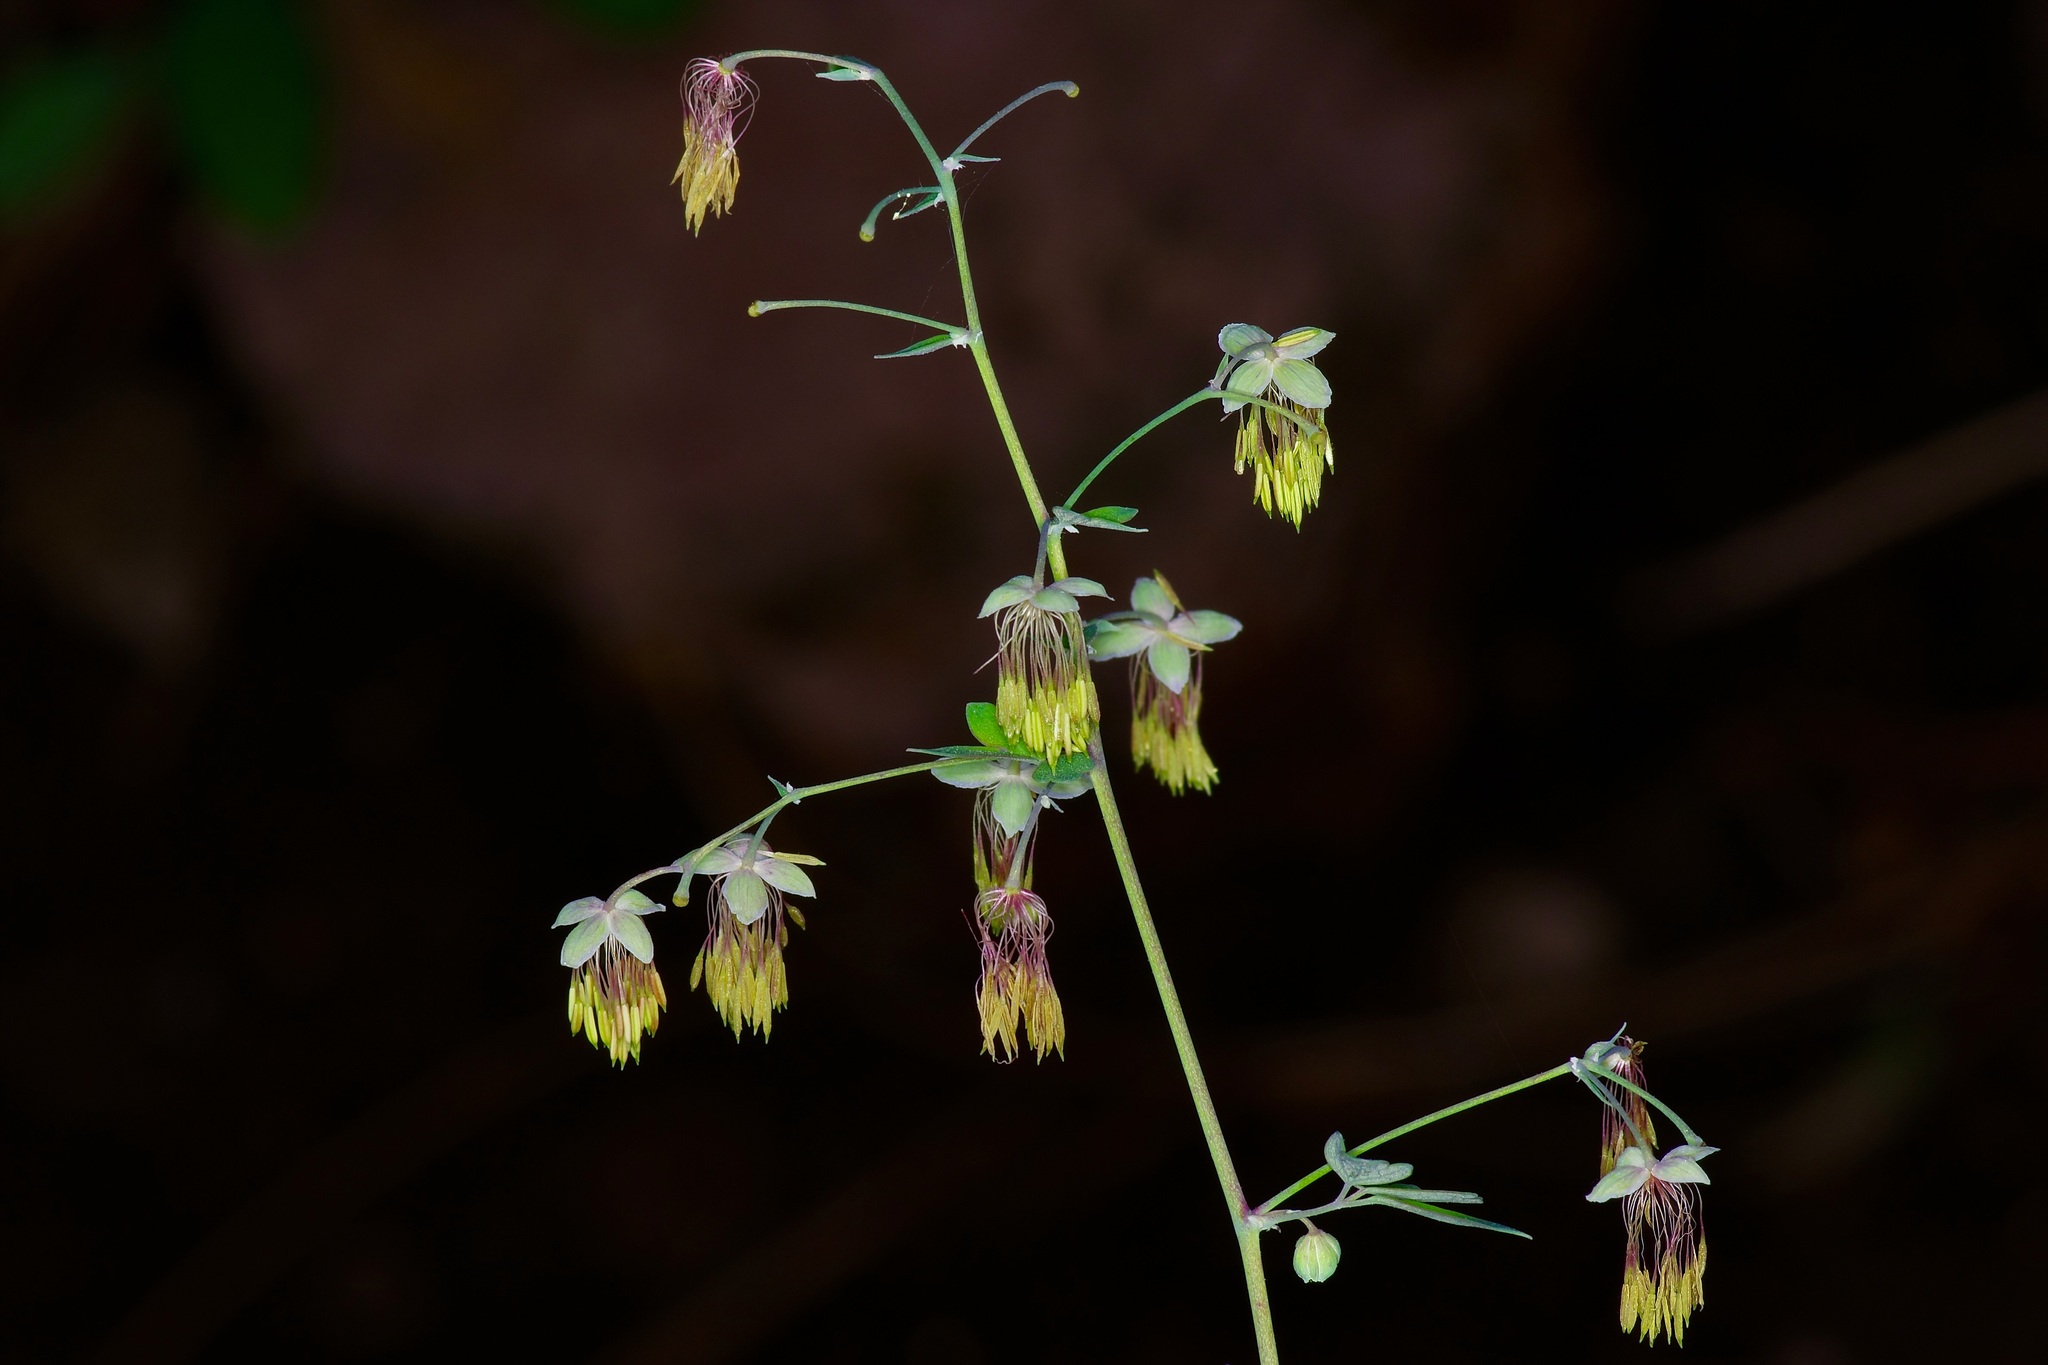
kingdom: Plantae
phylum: Tracheophyta
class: Magnoliopsida
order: Ranunculales
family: Ranunculaceae
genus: Thalictrum
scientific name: Thalictrum fendleri
